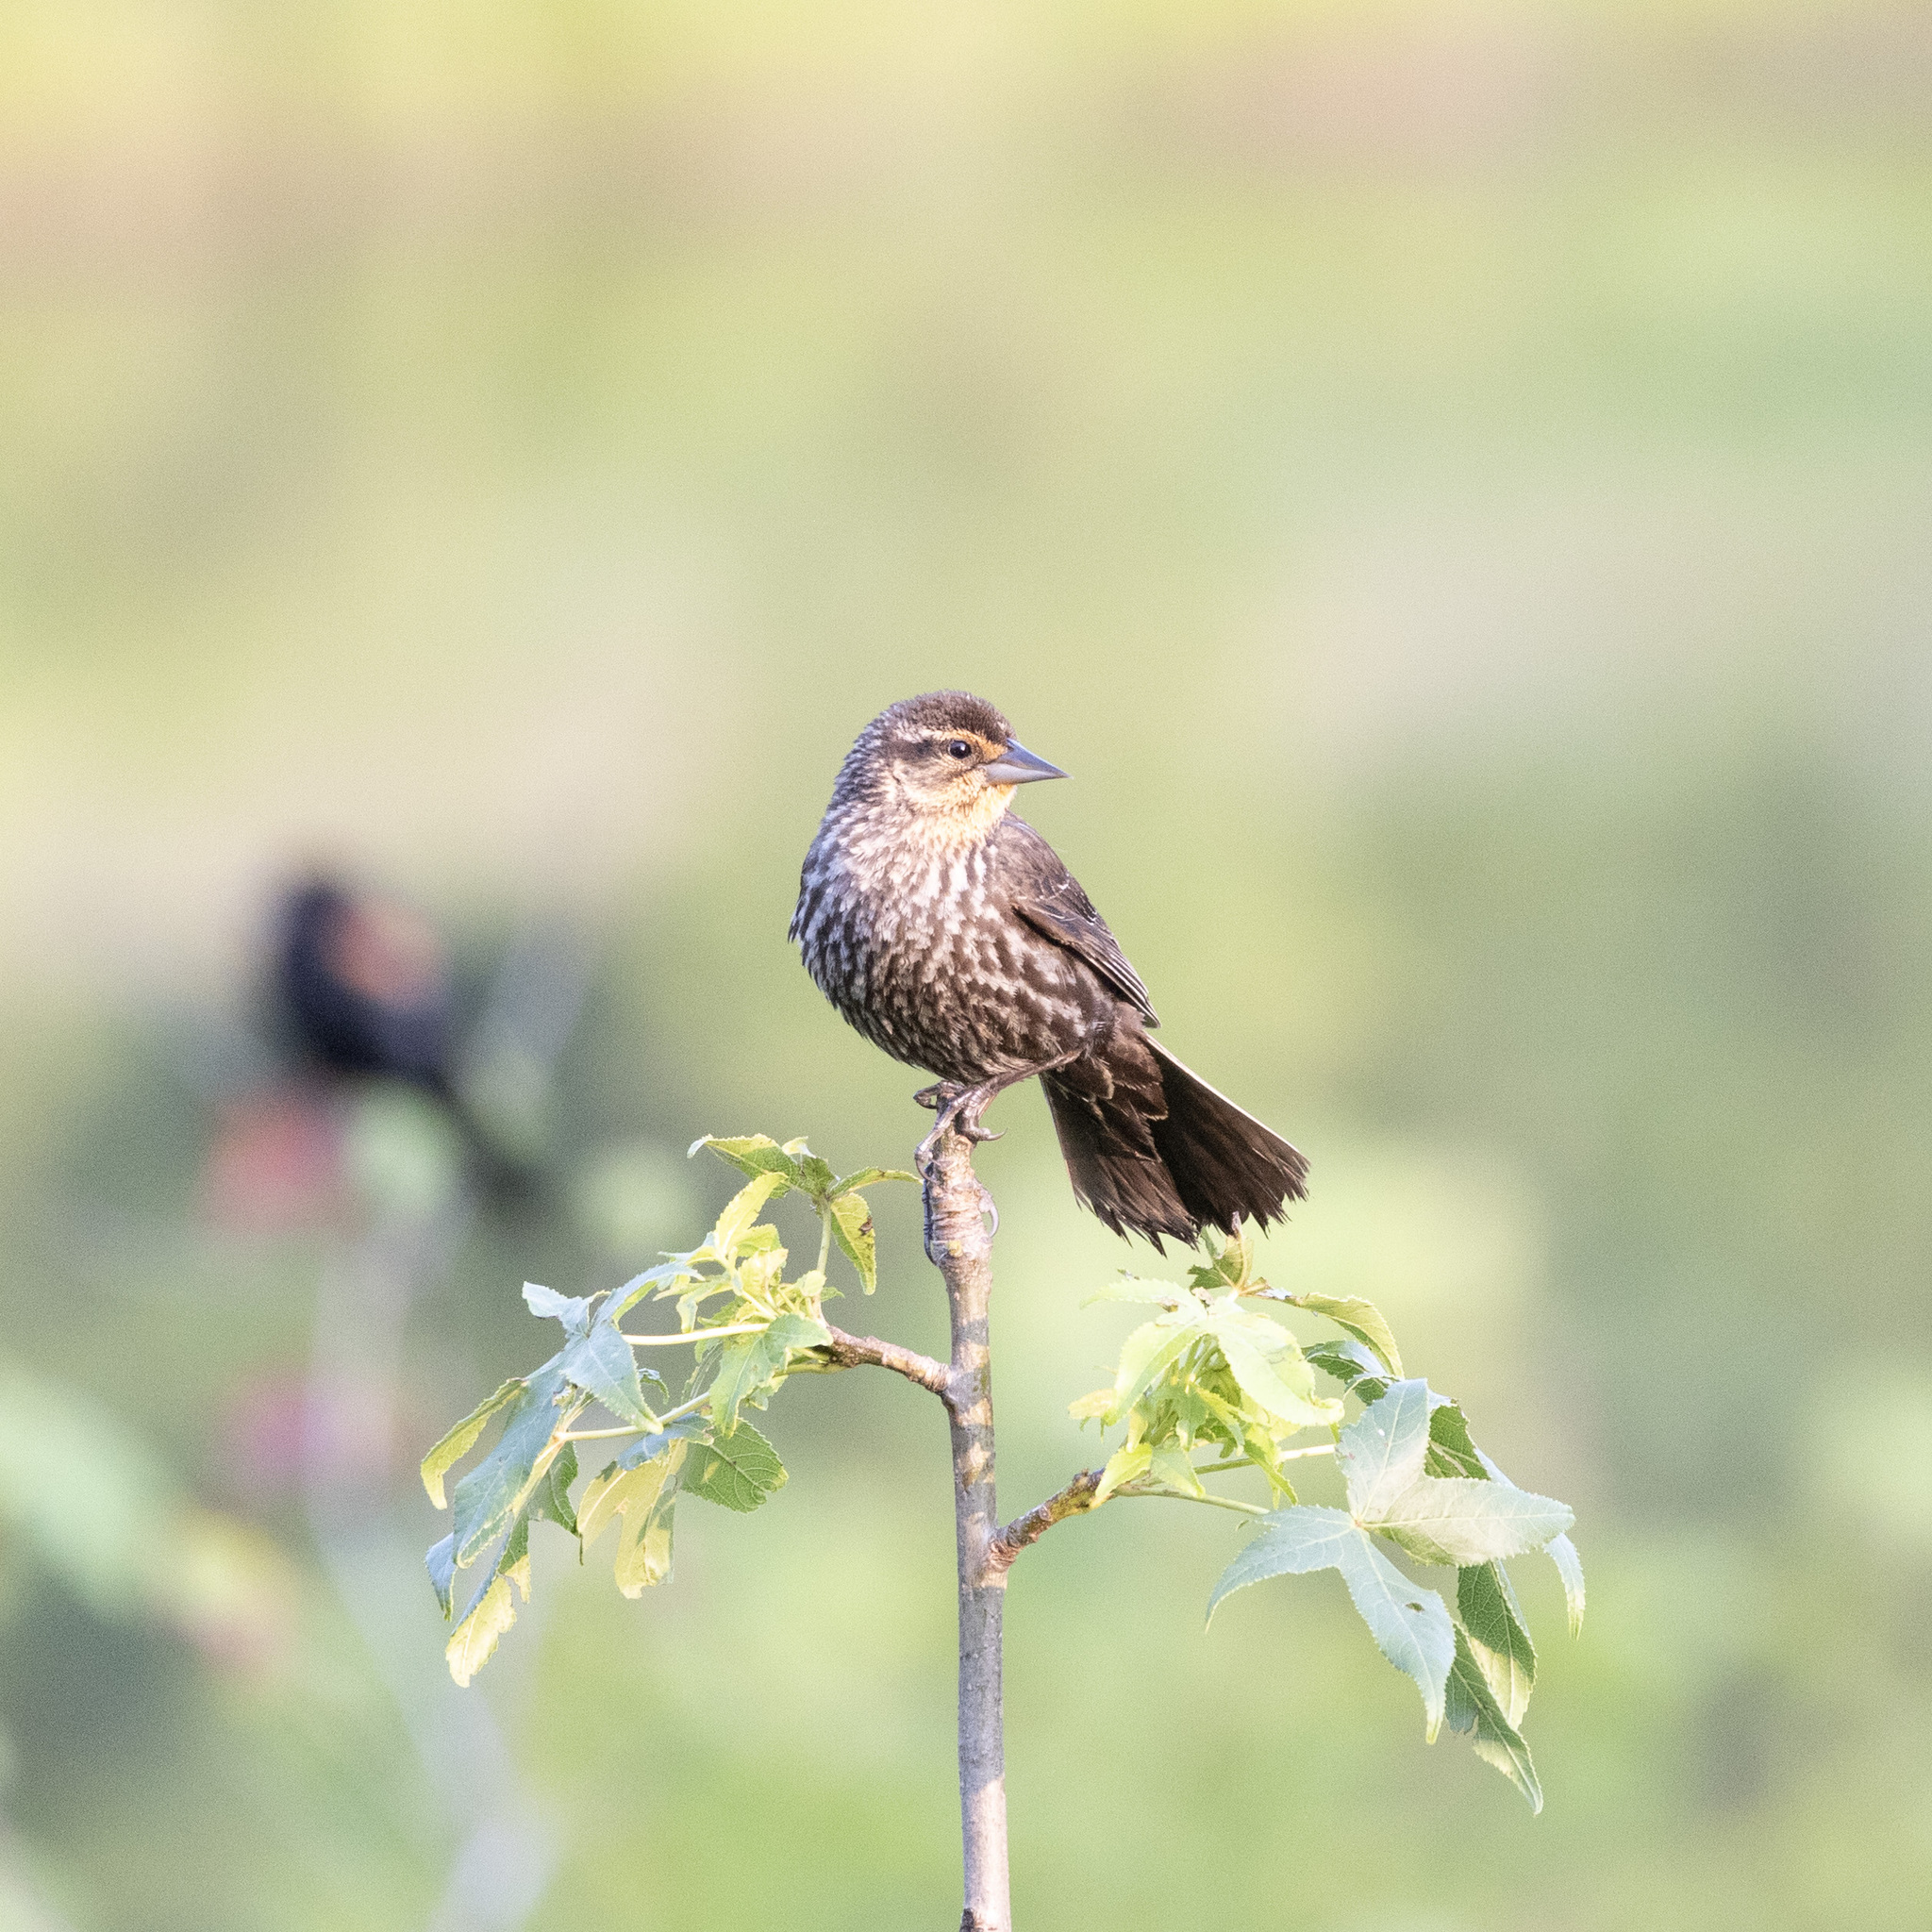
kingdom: Animalia
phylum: Chordata
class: Aves
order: Passeriformes
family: Icteridae
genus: Agelaius
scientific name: Agelaius phoeniceus
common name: Red-winged blackbird
